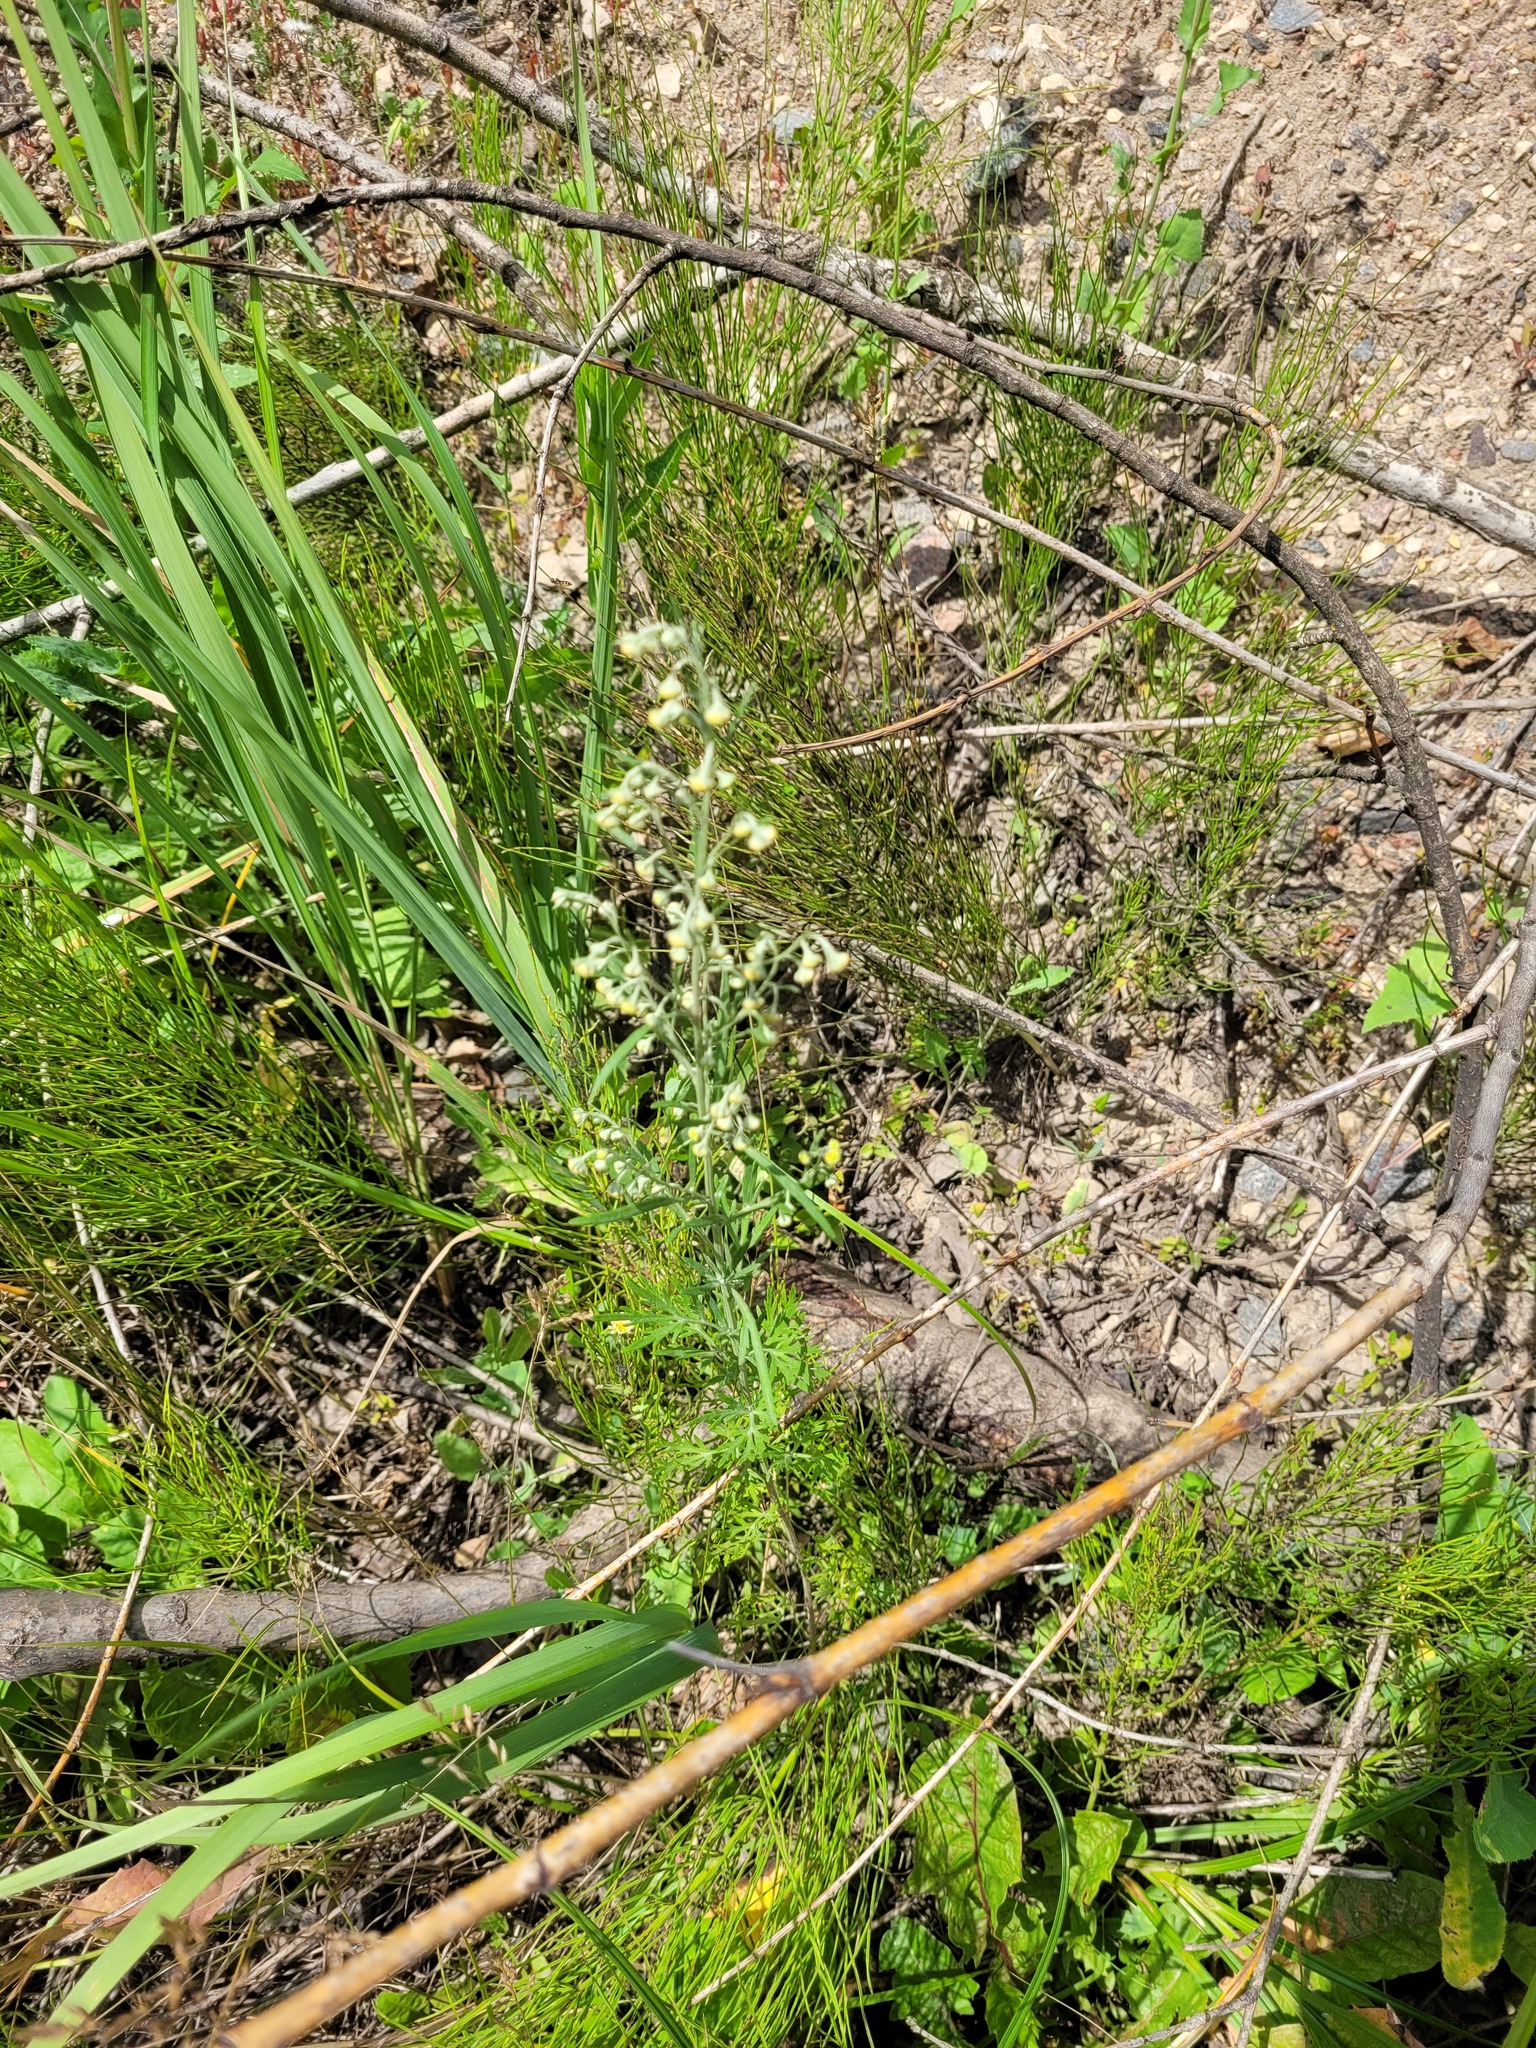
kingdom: Plantae
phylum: Tracheophyta
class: Magnoliopsida
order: Asterales
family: Asteraceae
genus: Artemisia
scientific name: Artemisia absinthium
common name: Wormwood
